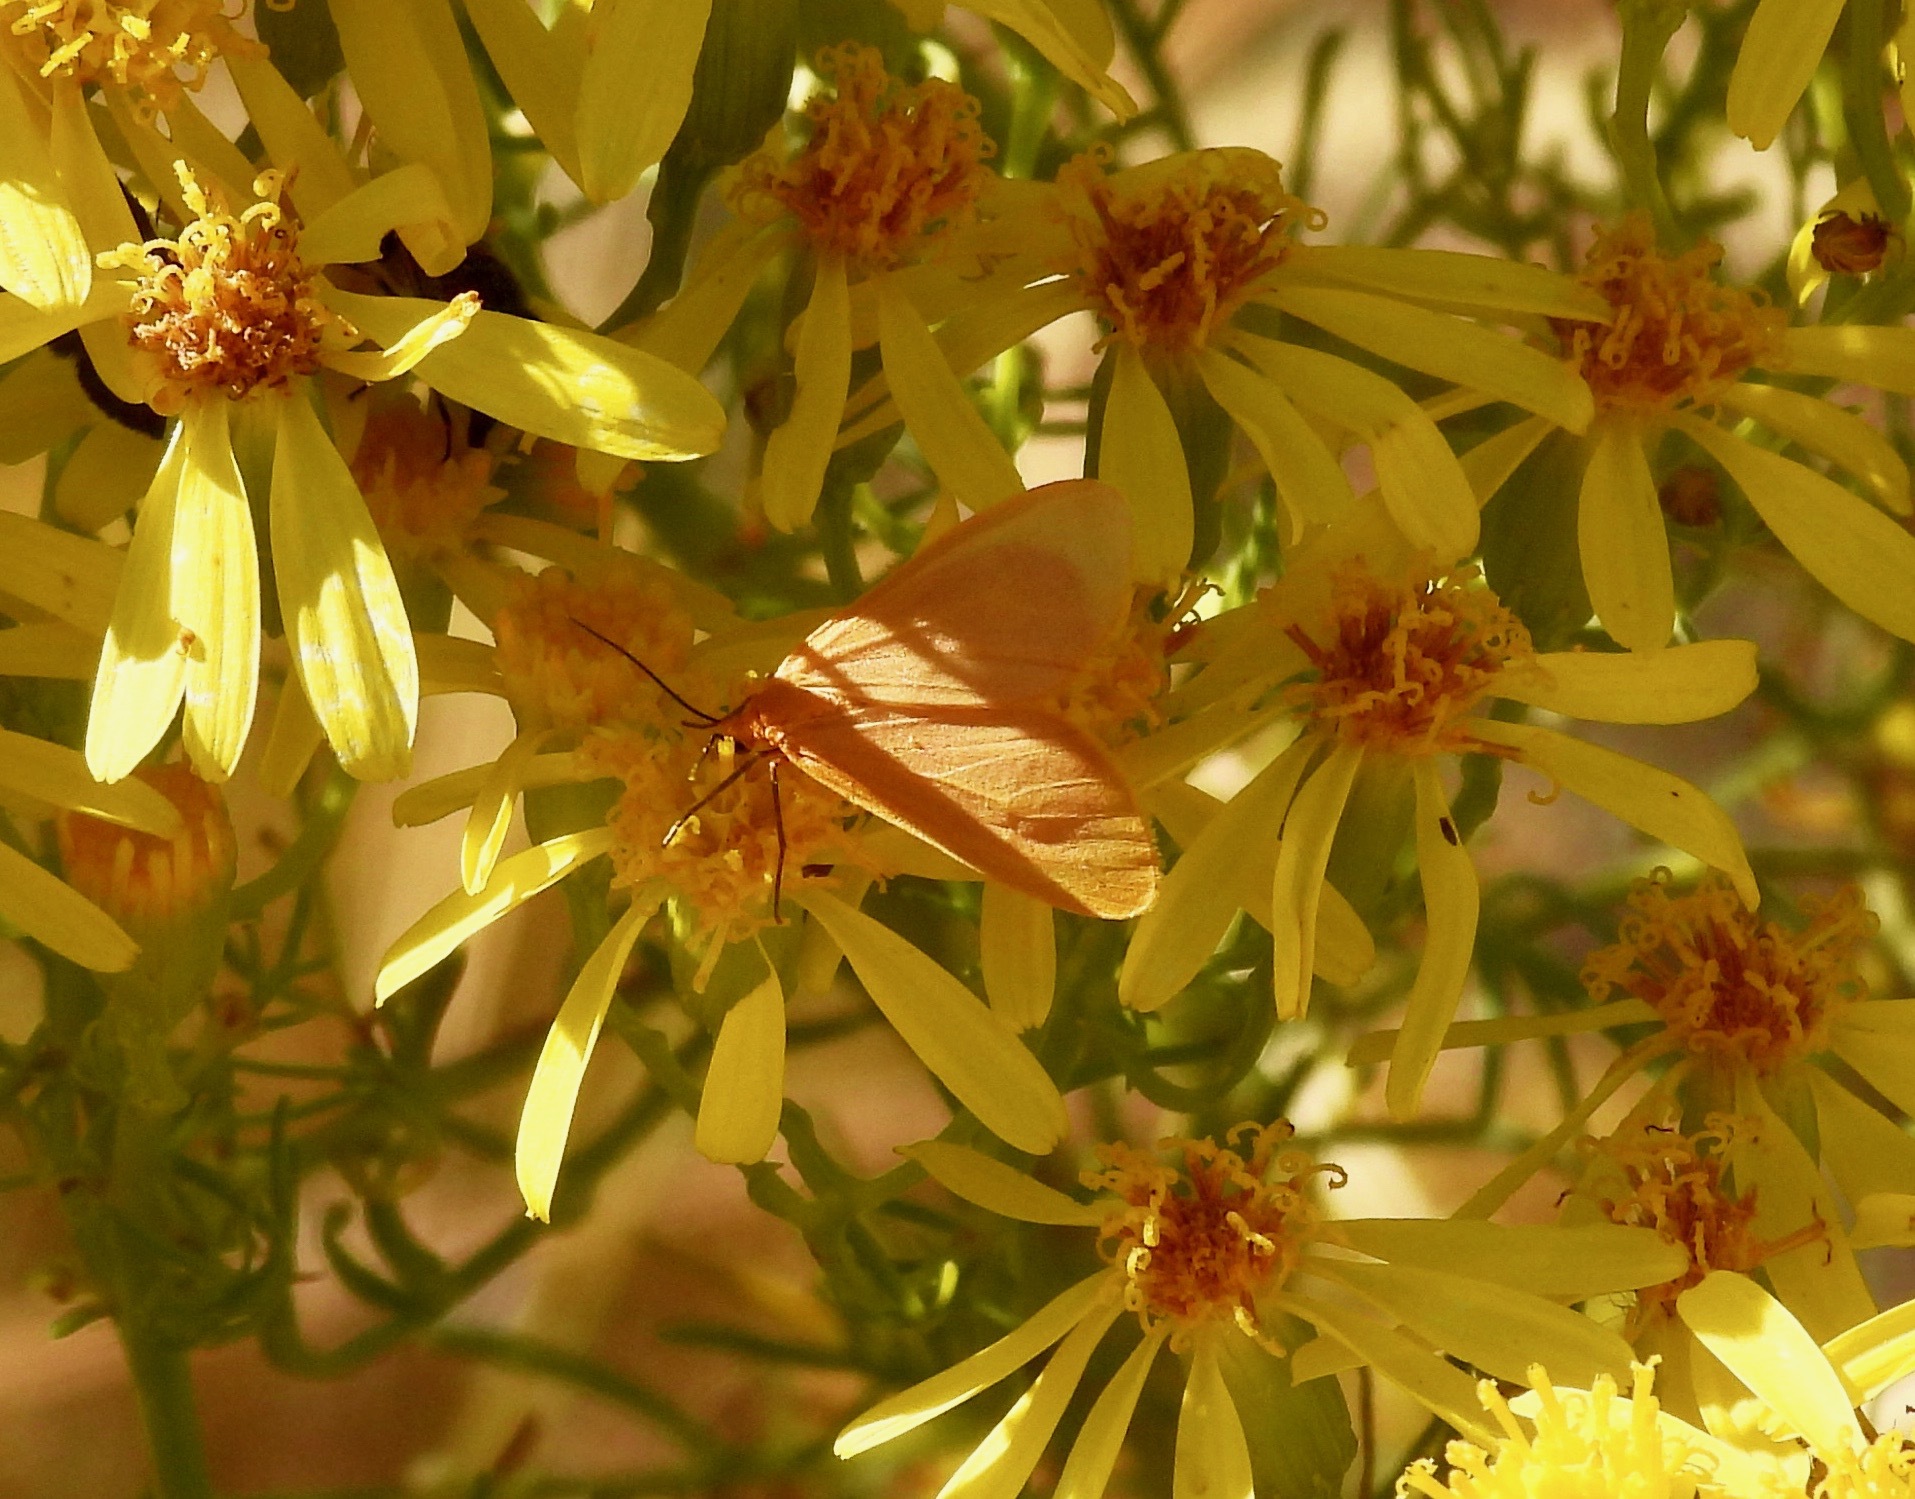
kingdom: Animalia
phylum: Arthropoda
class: Insecta
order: Lepidoptera
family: Geometridae
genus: Eubaphe
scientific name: Eubaphe unicolor
